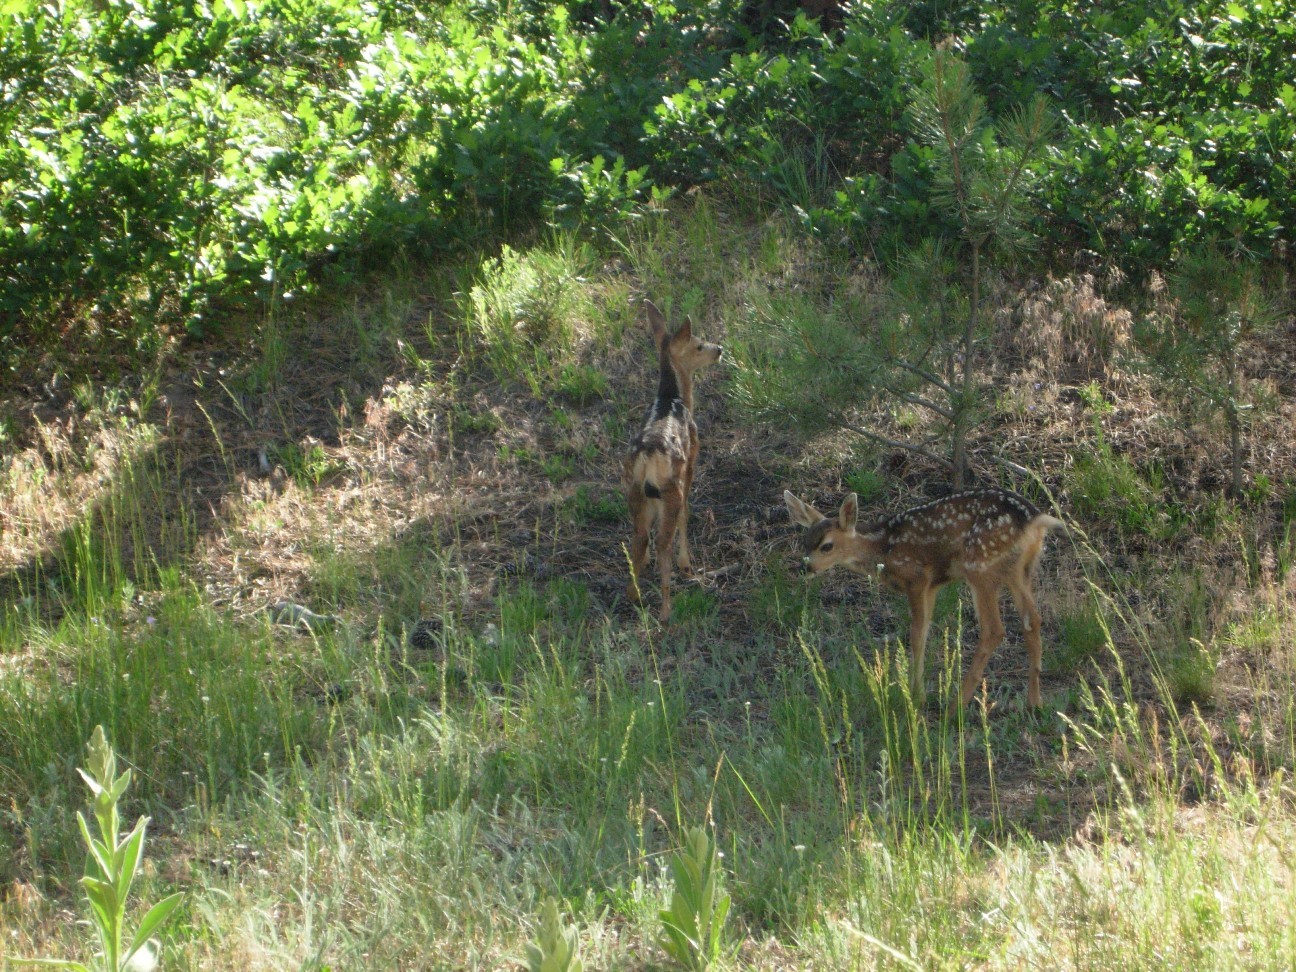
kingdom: Animalia
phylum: Chordata
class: Mammalia
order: Artiodactyla
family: Cervidae
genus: Odocoileus
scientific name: Odocoileus hemionus
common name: Mule deer
